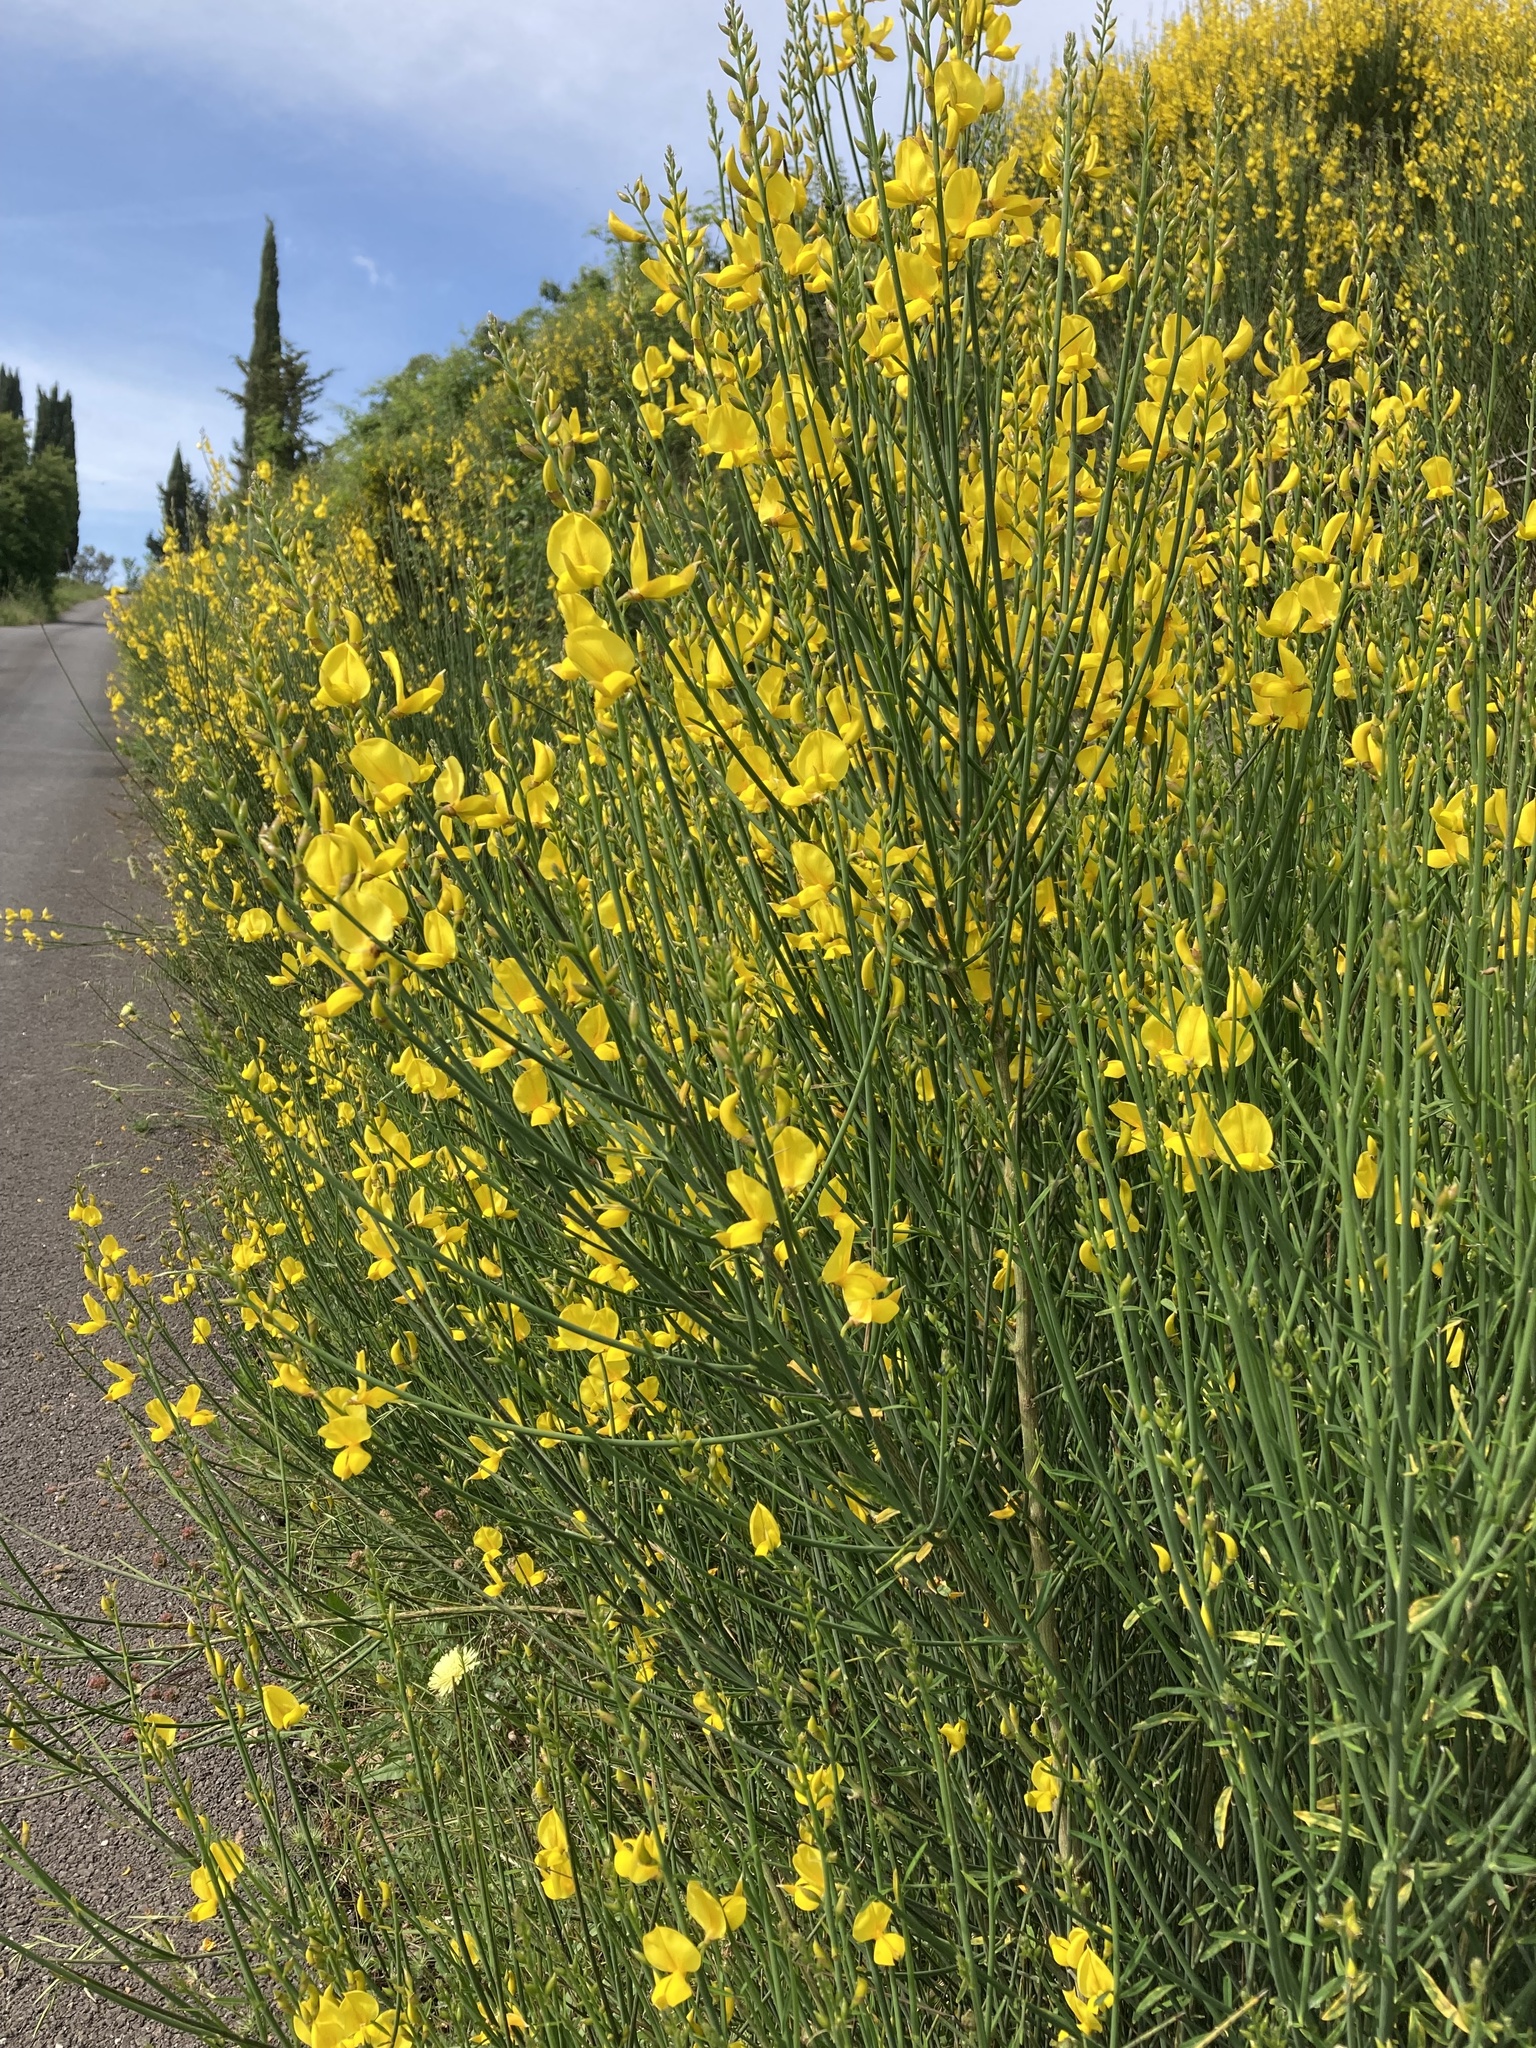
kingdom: Plantae
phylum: Tracheophyta
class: Magnoliopsida
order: Fabales
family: Fabaceae
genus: Spartium
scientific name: Spartium junceum
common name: Spanish broom
